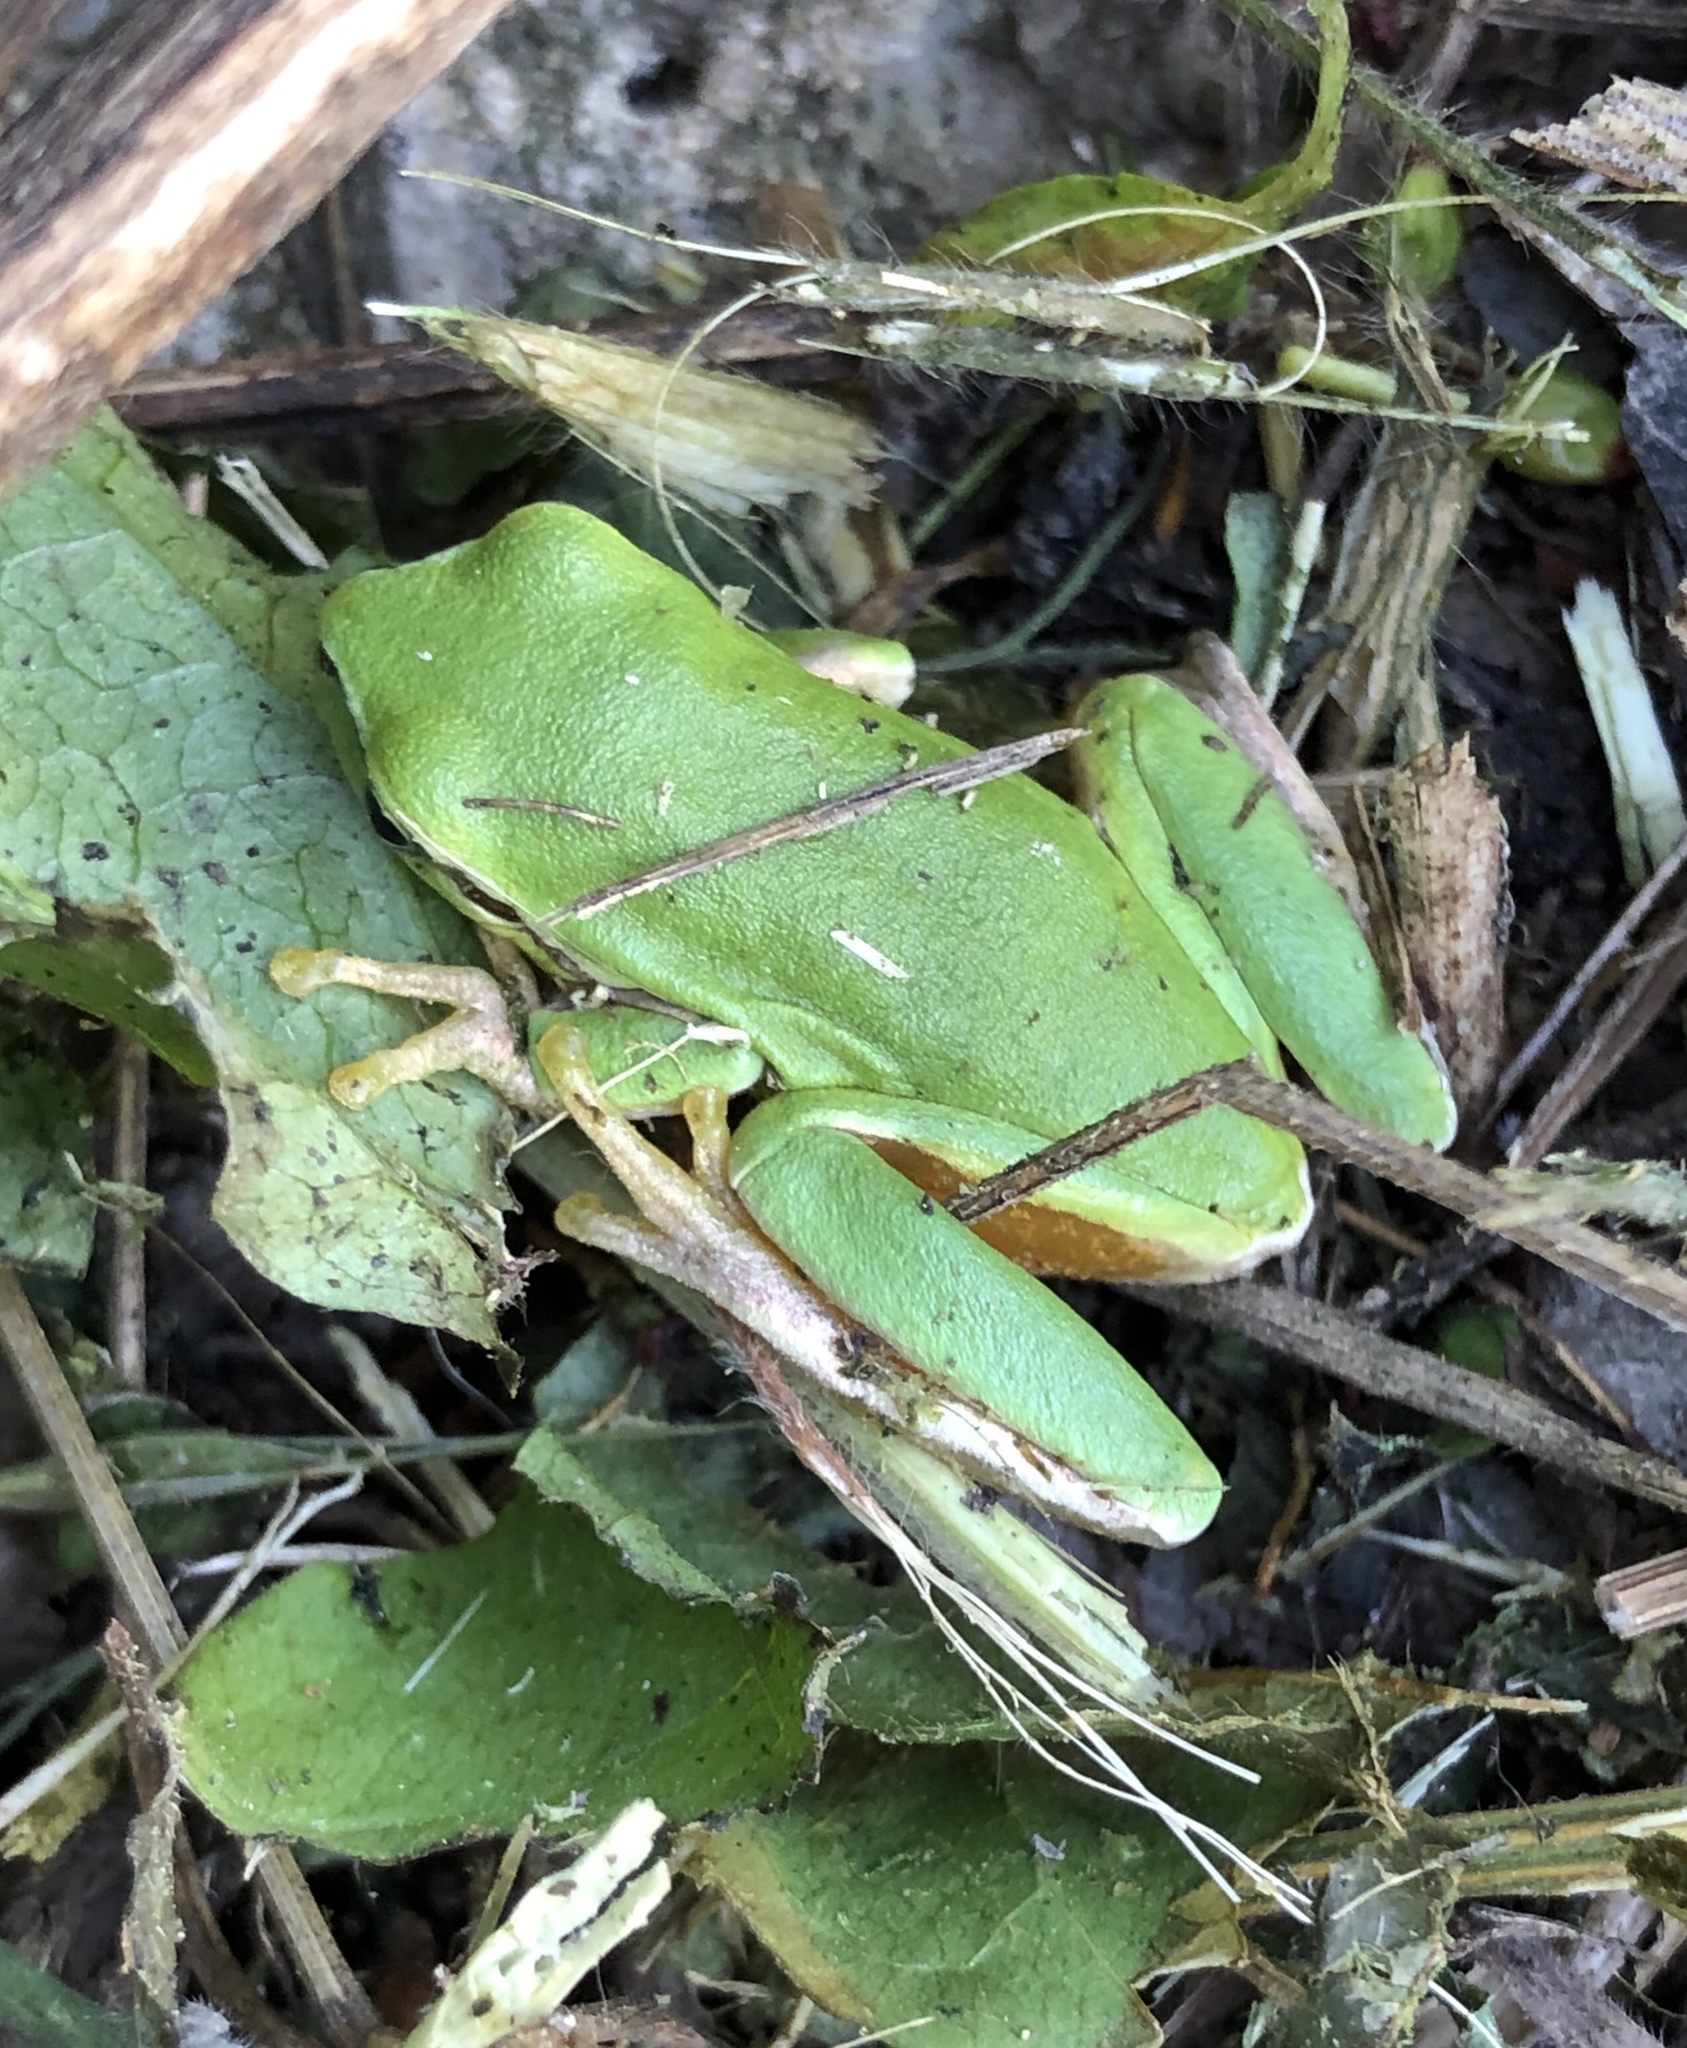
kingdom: Animalia
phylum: Chordata
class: Amphibia
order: Anura
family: Hylidae
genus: Hyla
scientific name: Hyla meridionalis
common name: Stripeless tree frog
